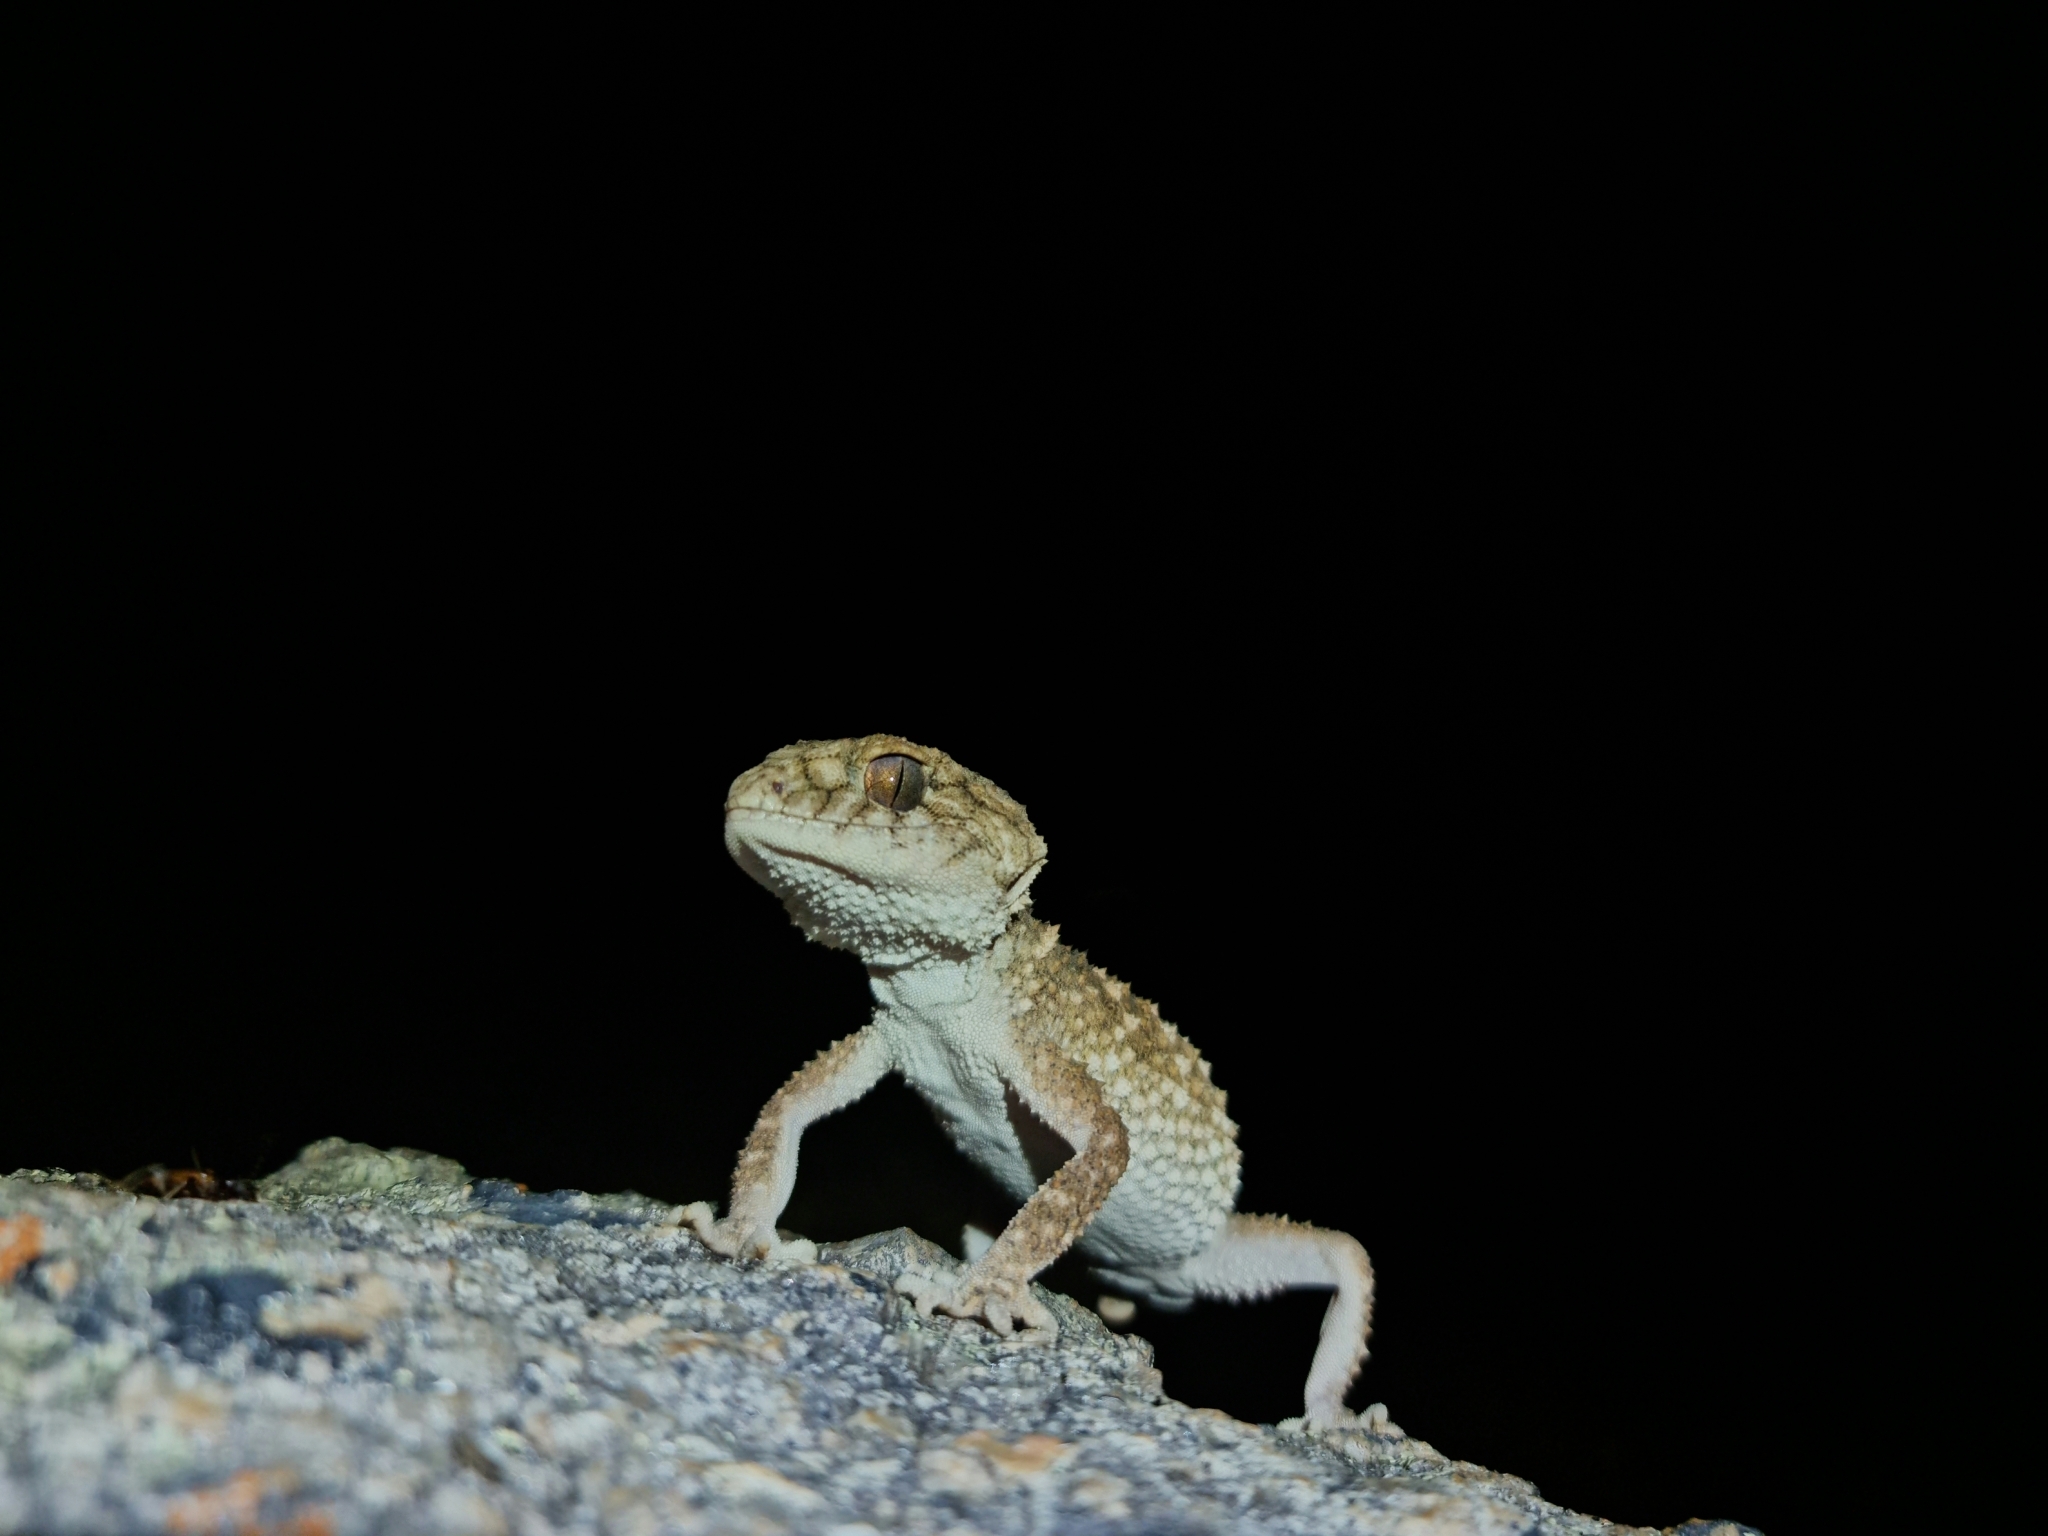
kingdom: Animalia
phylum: Chordata
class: Squamata
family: Carphodactylidae
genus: Nephrurus
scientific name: Nephrurus asper
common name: Rough knob-tail
